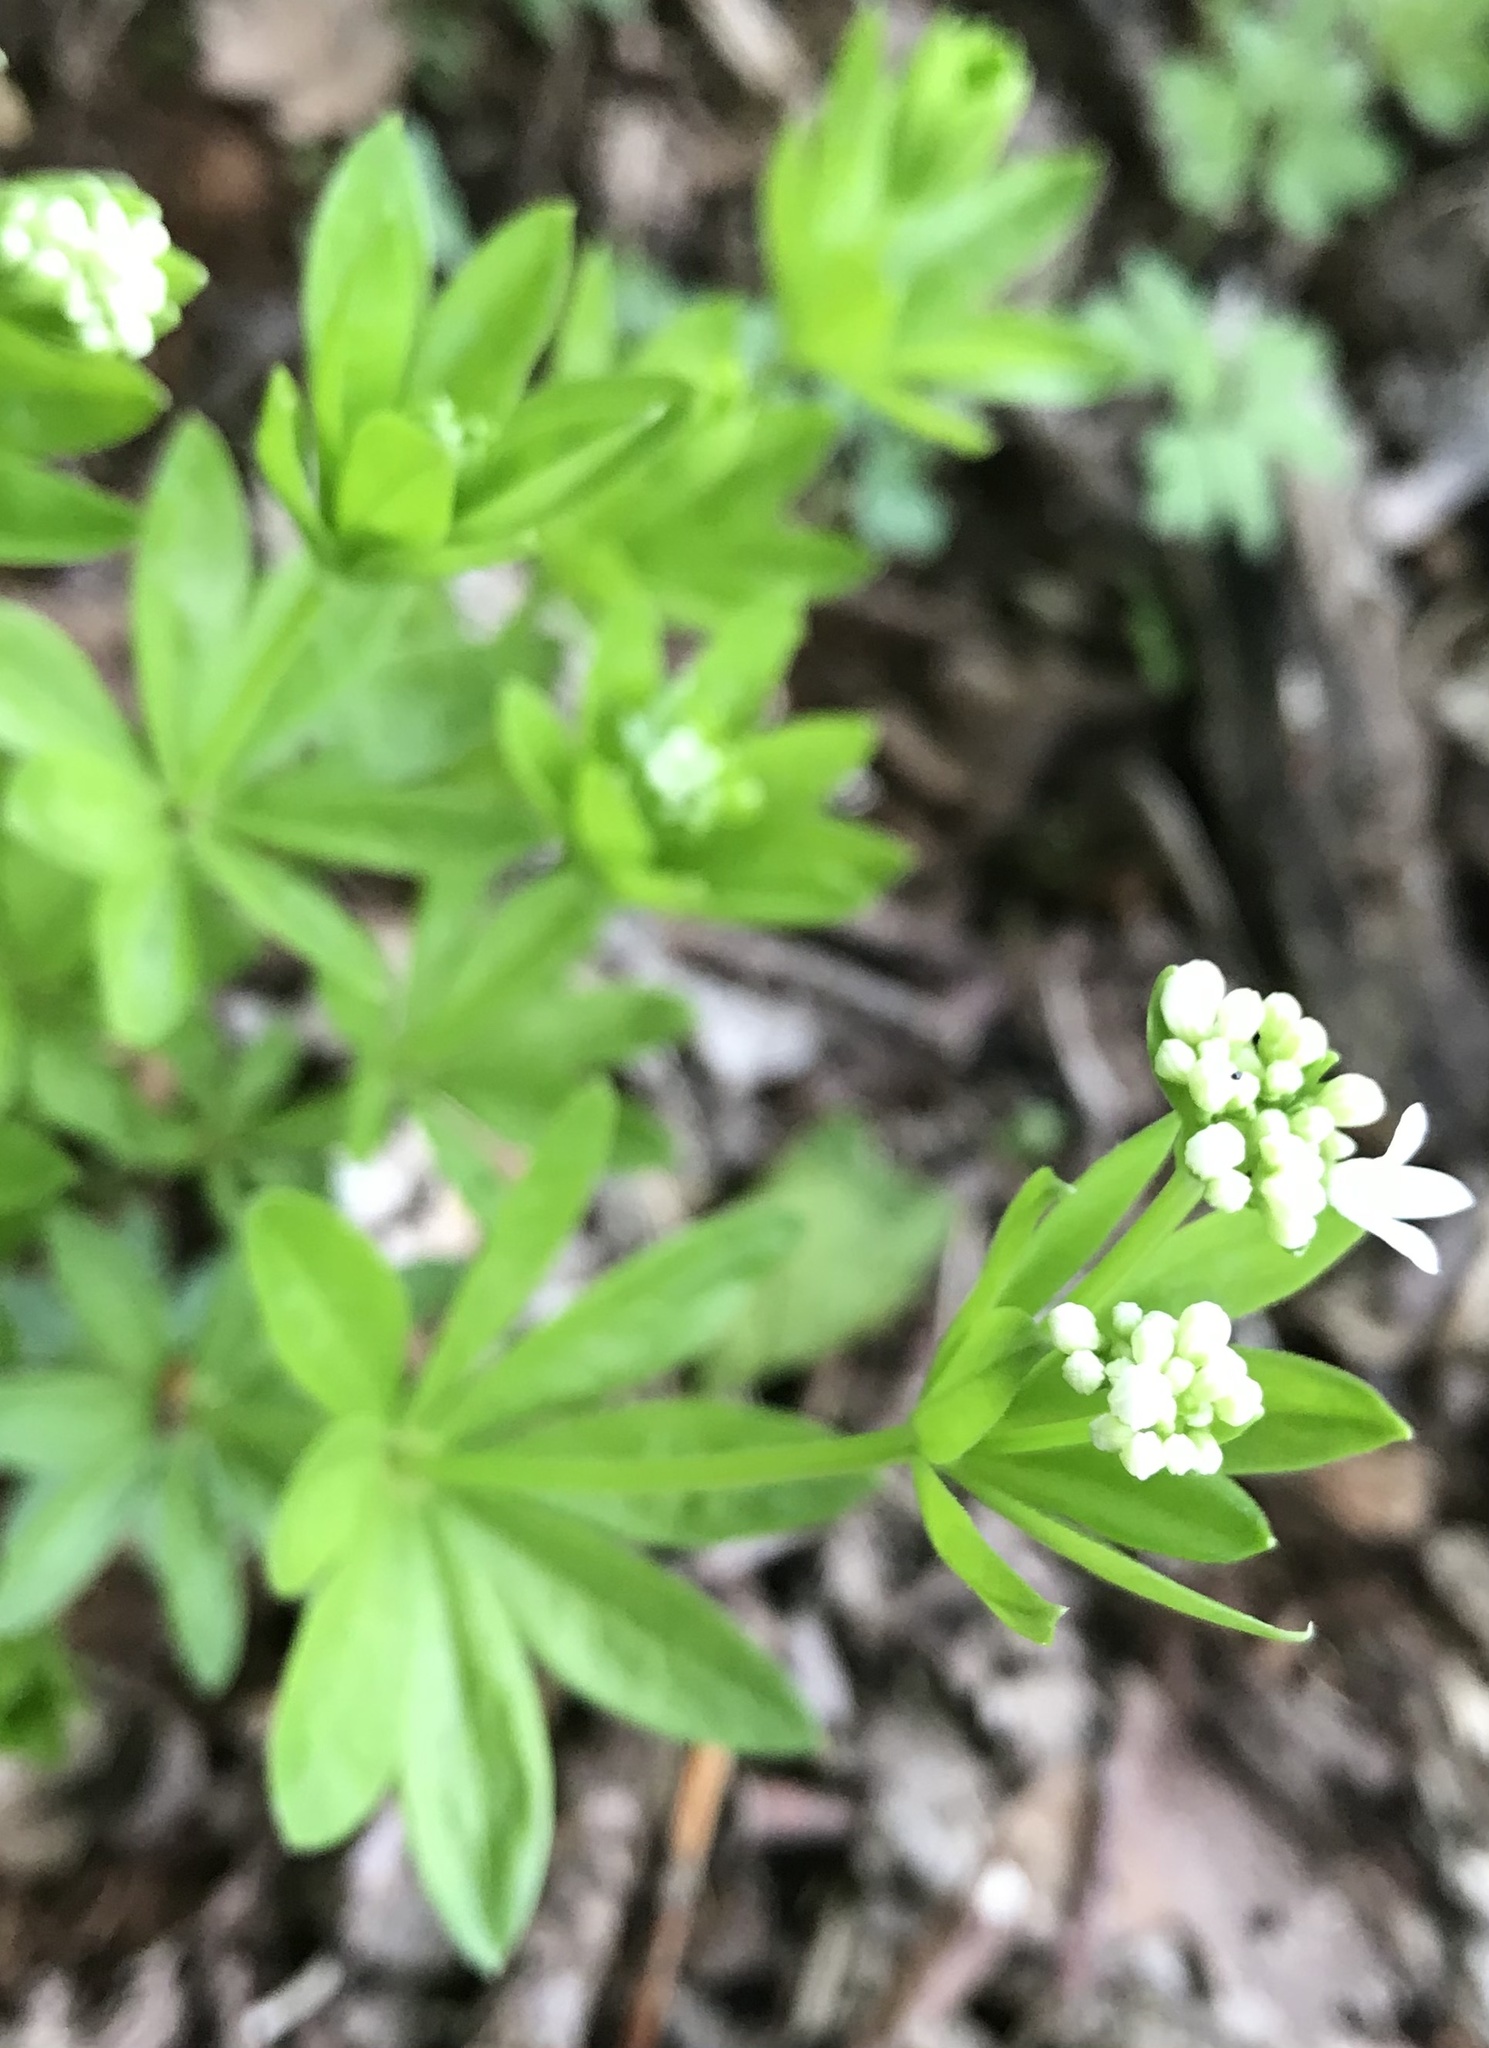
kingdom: Plantae
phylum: Tracheophyta
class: Magnoliopsida
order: Gentianales
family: Rubiaceae
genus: Galium
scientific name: Galium odoratum
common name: Sweet woodruff
